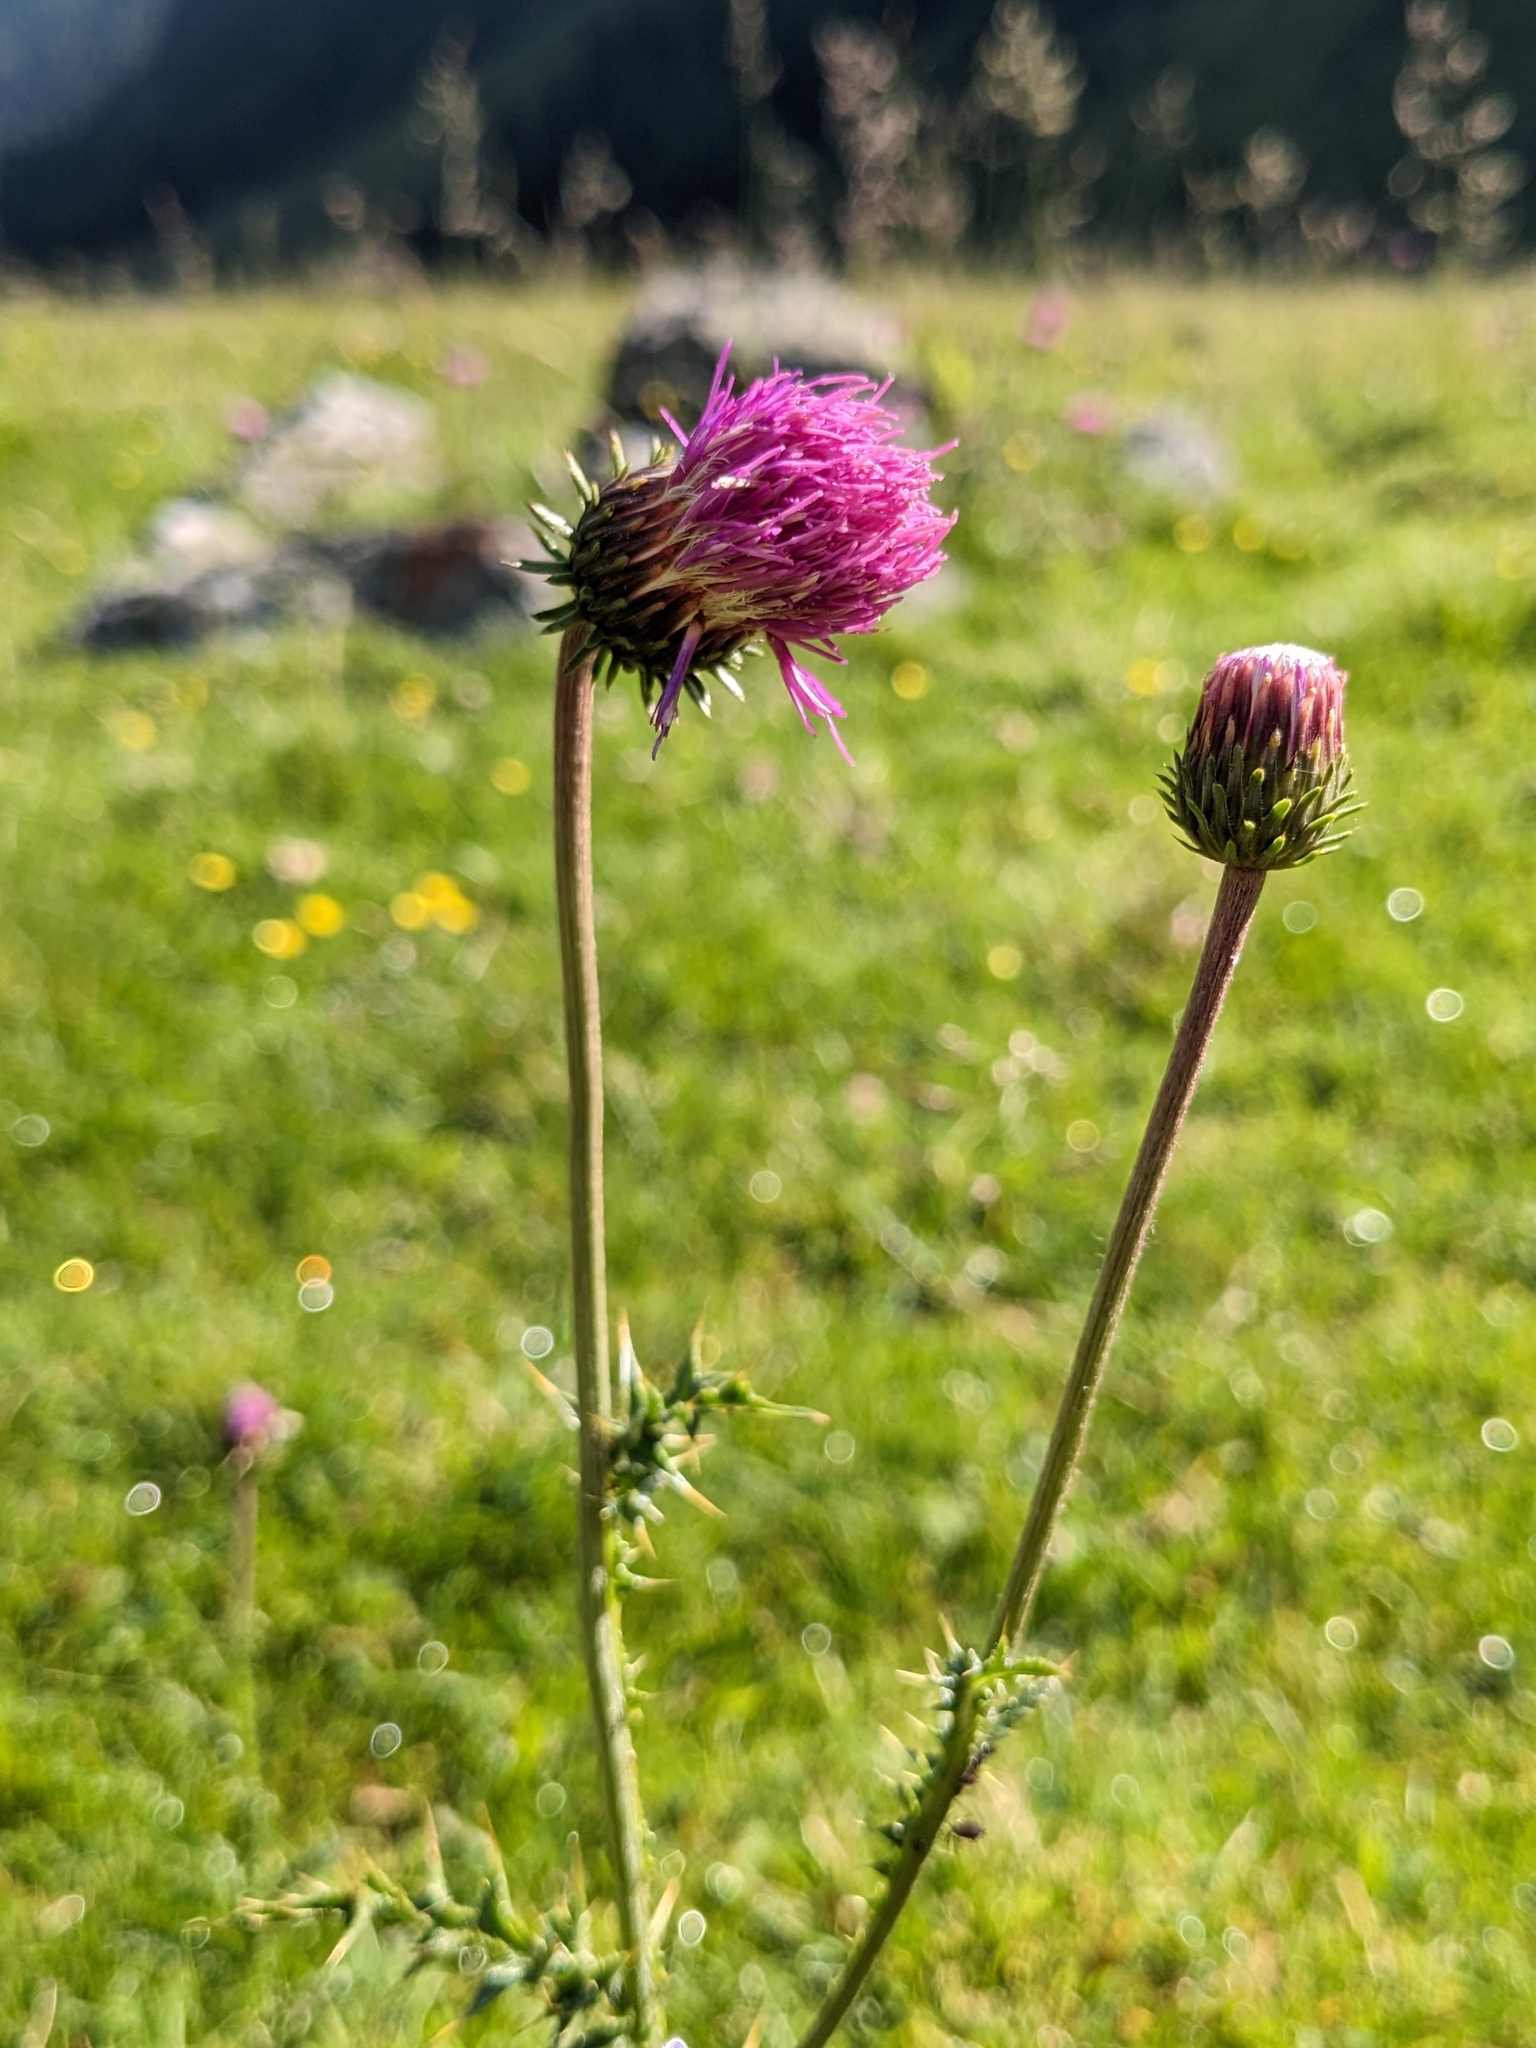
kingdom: Plantae
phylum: Tracheophyta
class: Magnoliopsida
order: Asterales
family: Asteraceae
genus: Carduus
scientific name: Carduus defloratus
